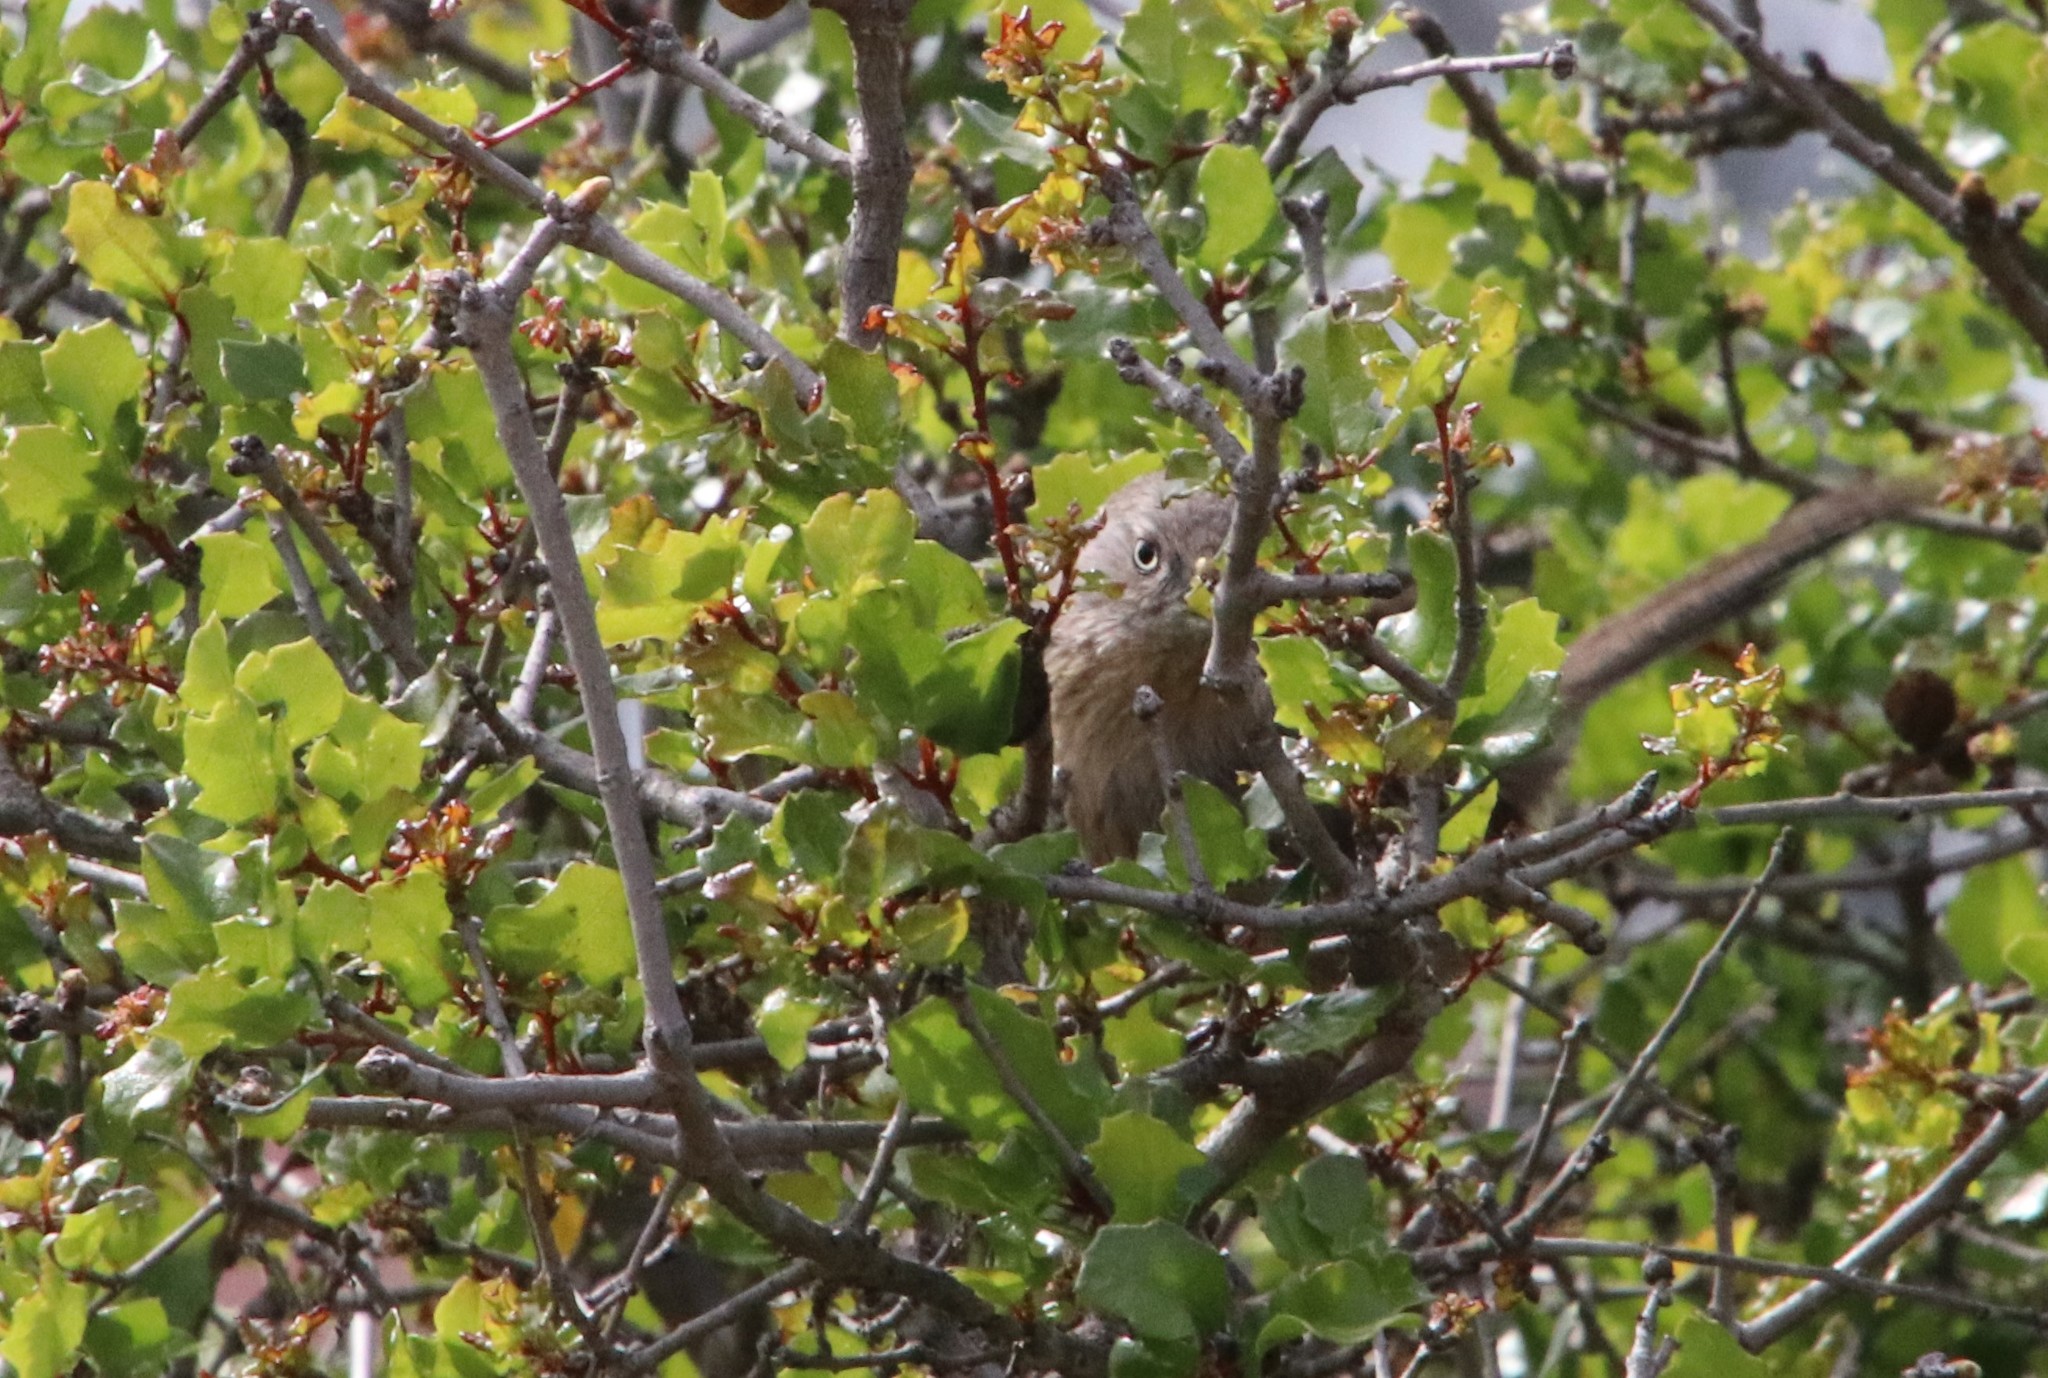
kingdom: Animalia
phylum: Chordata
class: Aves
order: Passeriformes
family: Sylviidae
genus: Chamaea
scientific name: Chamaea fasciata
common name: Wrentit
